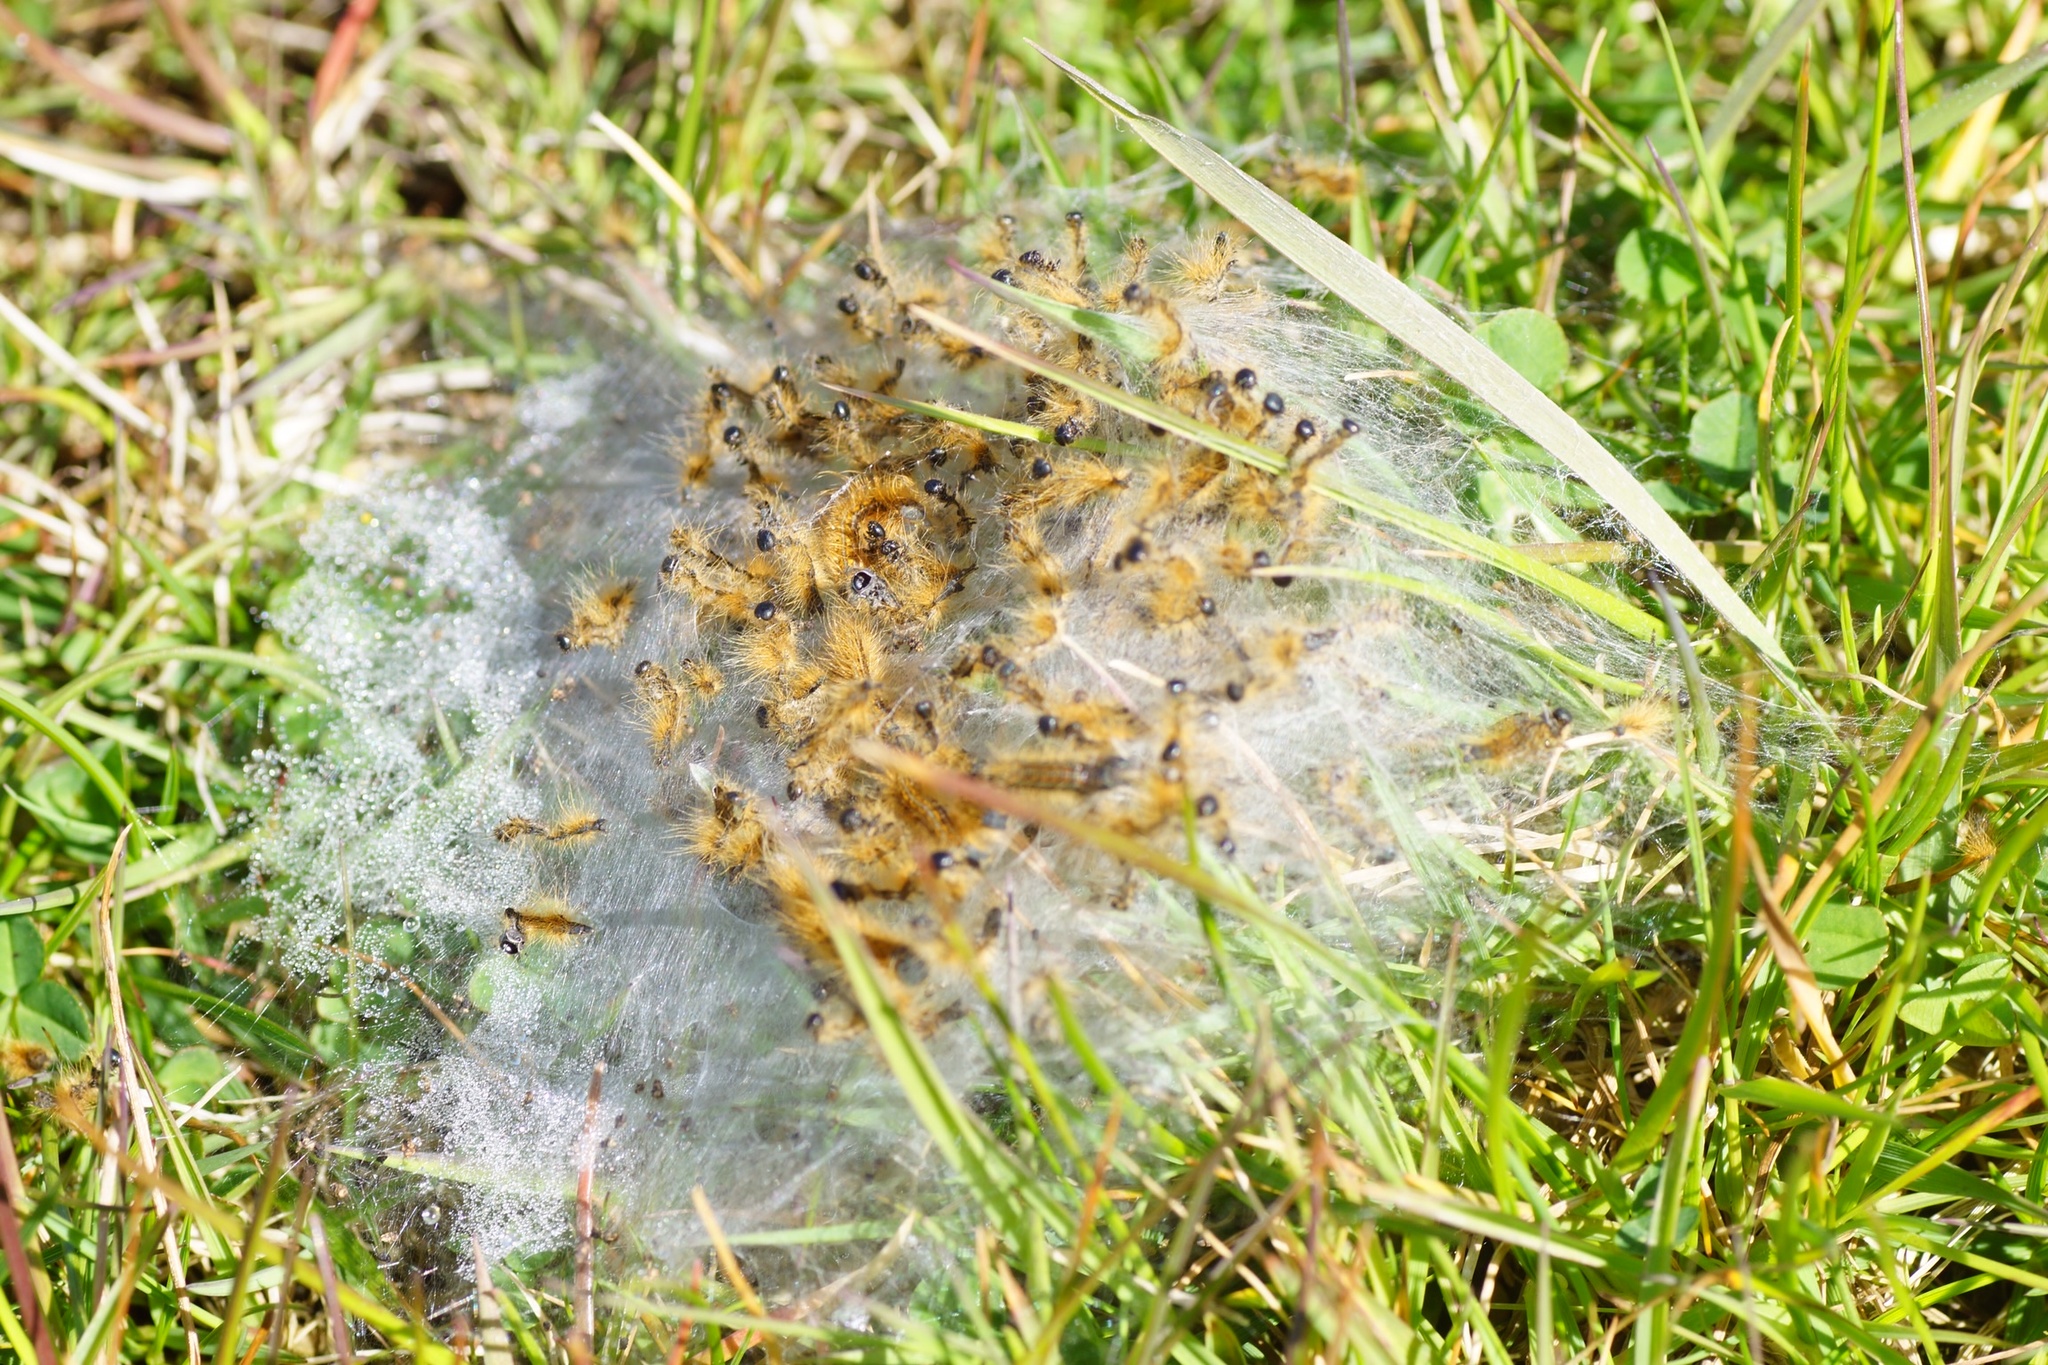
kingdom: Animalia
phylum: Arthropoda
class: Insecta
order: Lepidoptera
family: Lasiocampidae
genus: Malacosoma
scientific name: Malacosoma castrense
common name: Ground lackey
